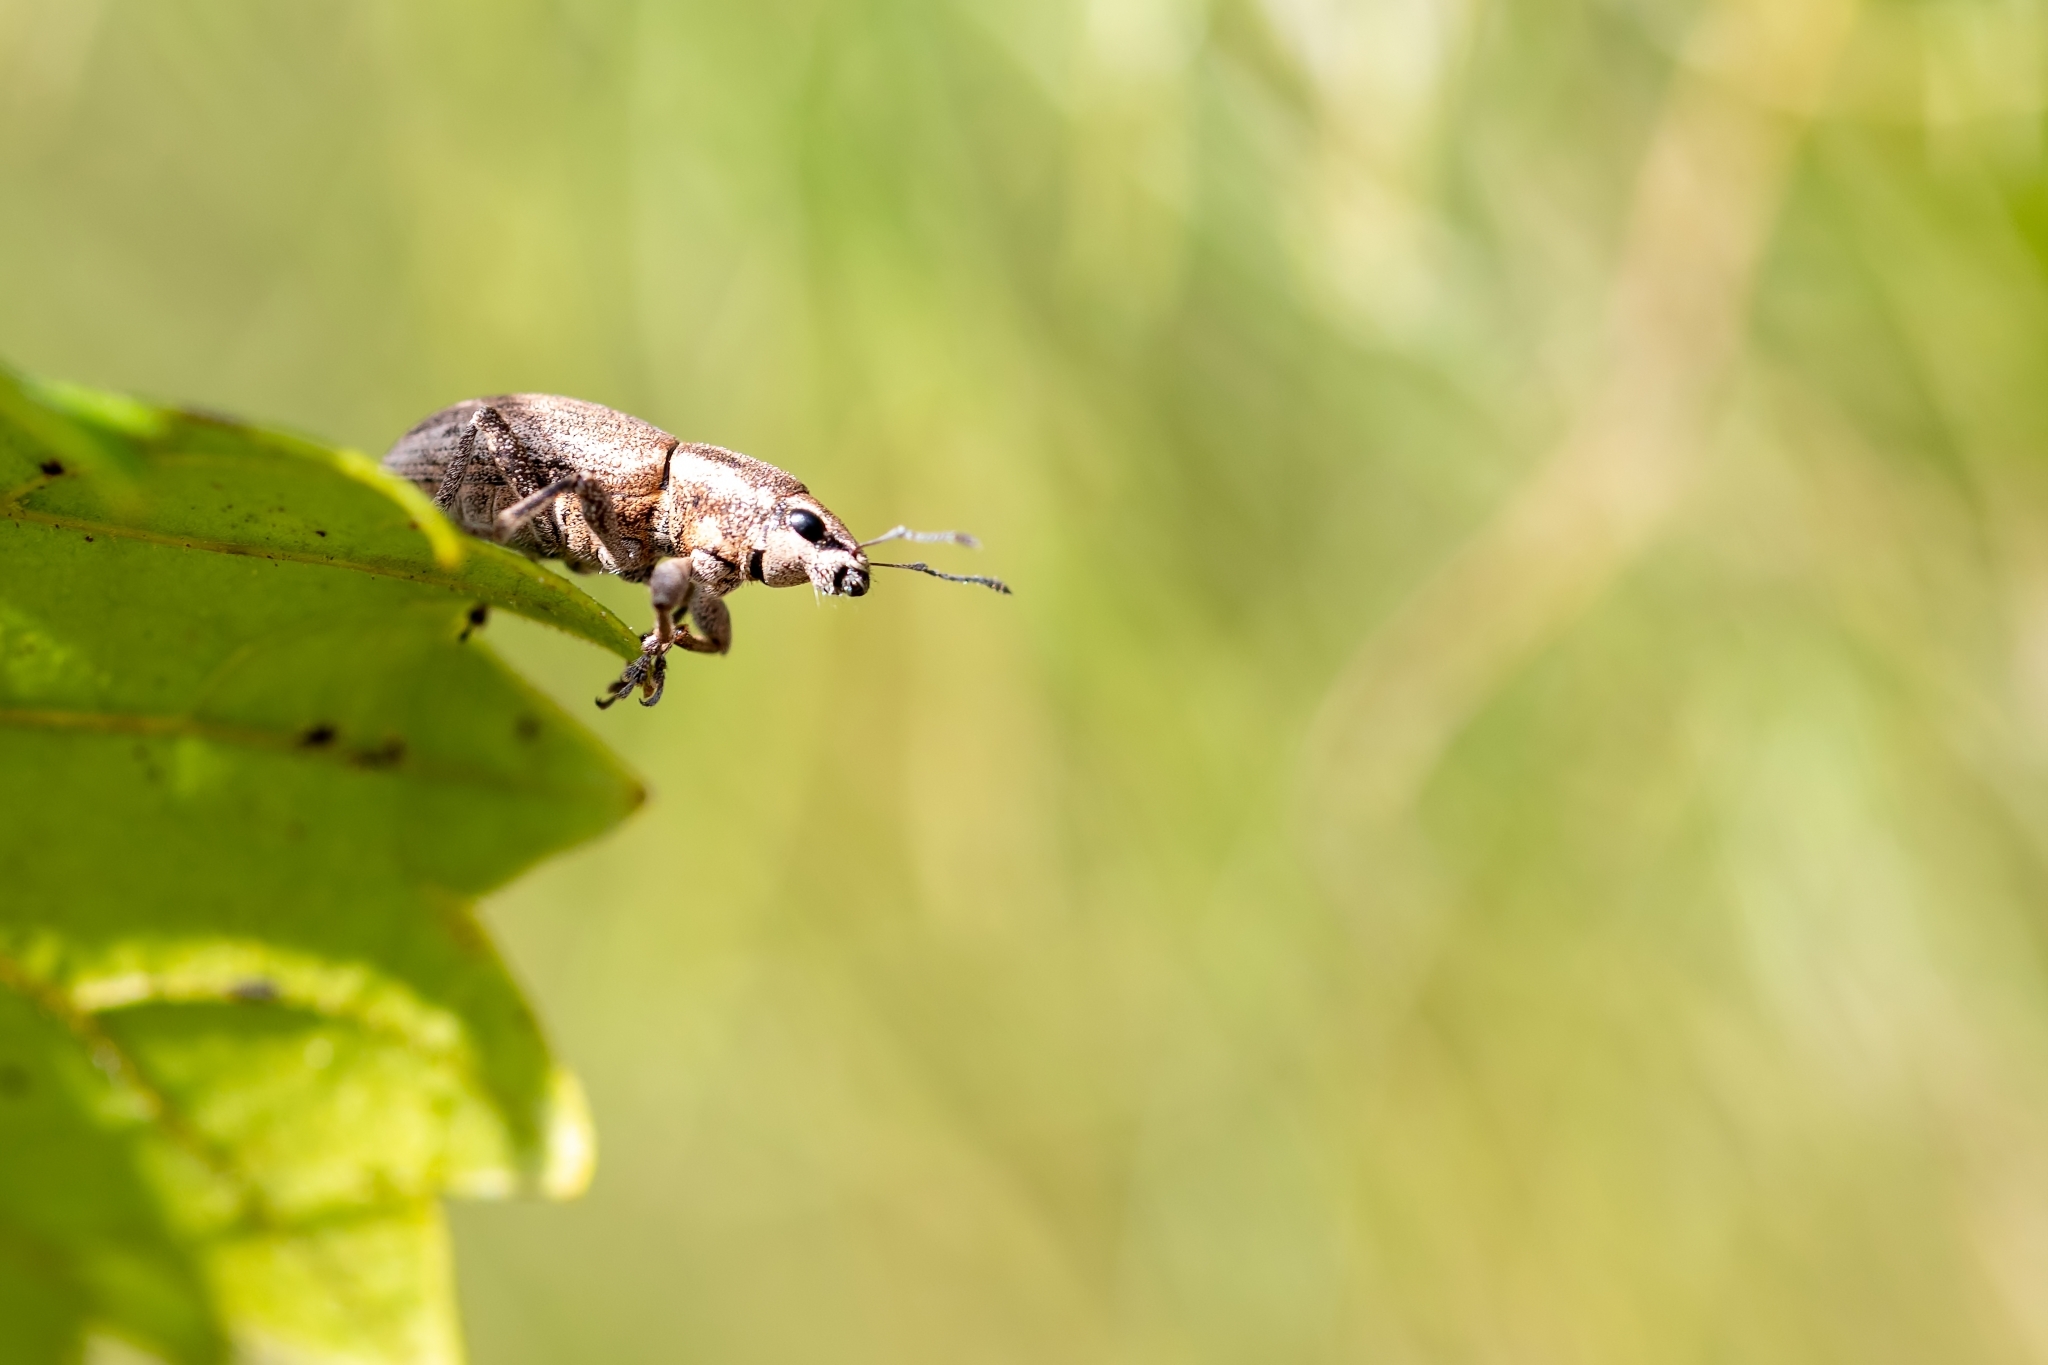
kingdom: Animalia
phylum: Arthropoda
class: Insecta
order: Coleoptera
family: Curculionidae
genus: Tanymecus
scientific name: Tanymecus confusus
